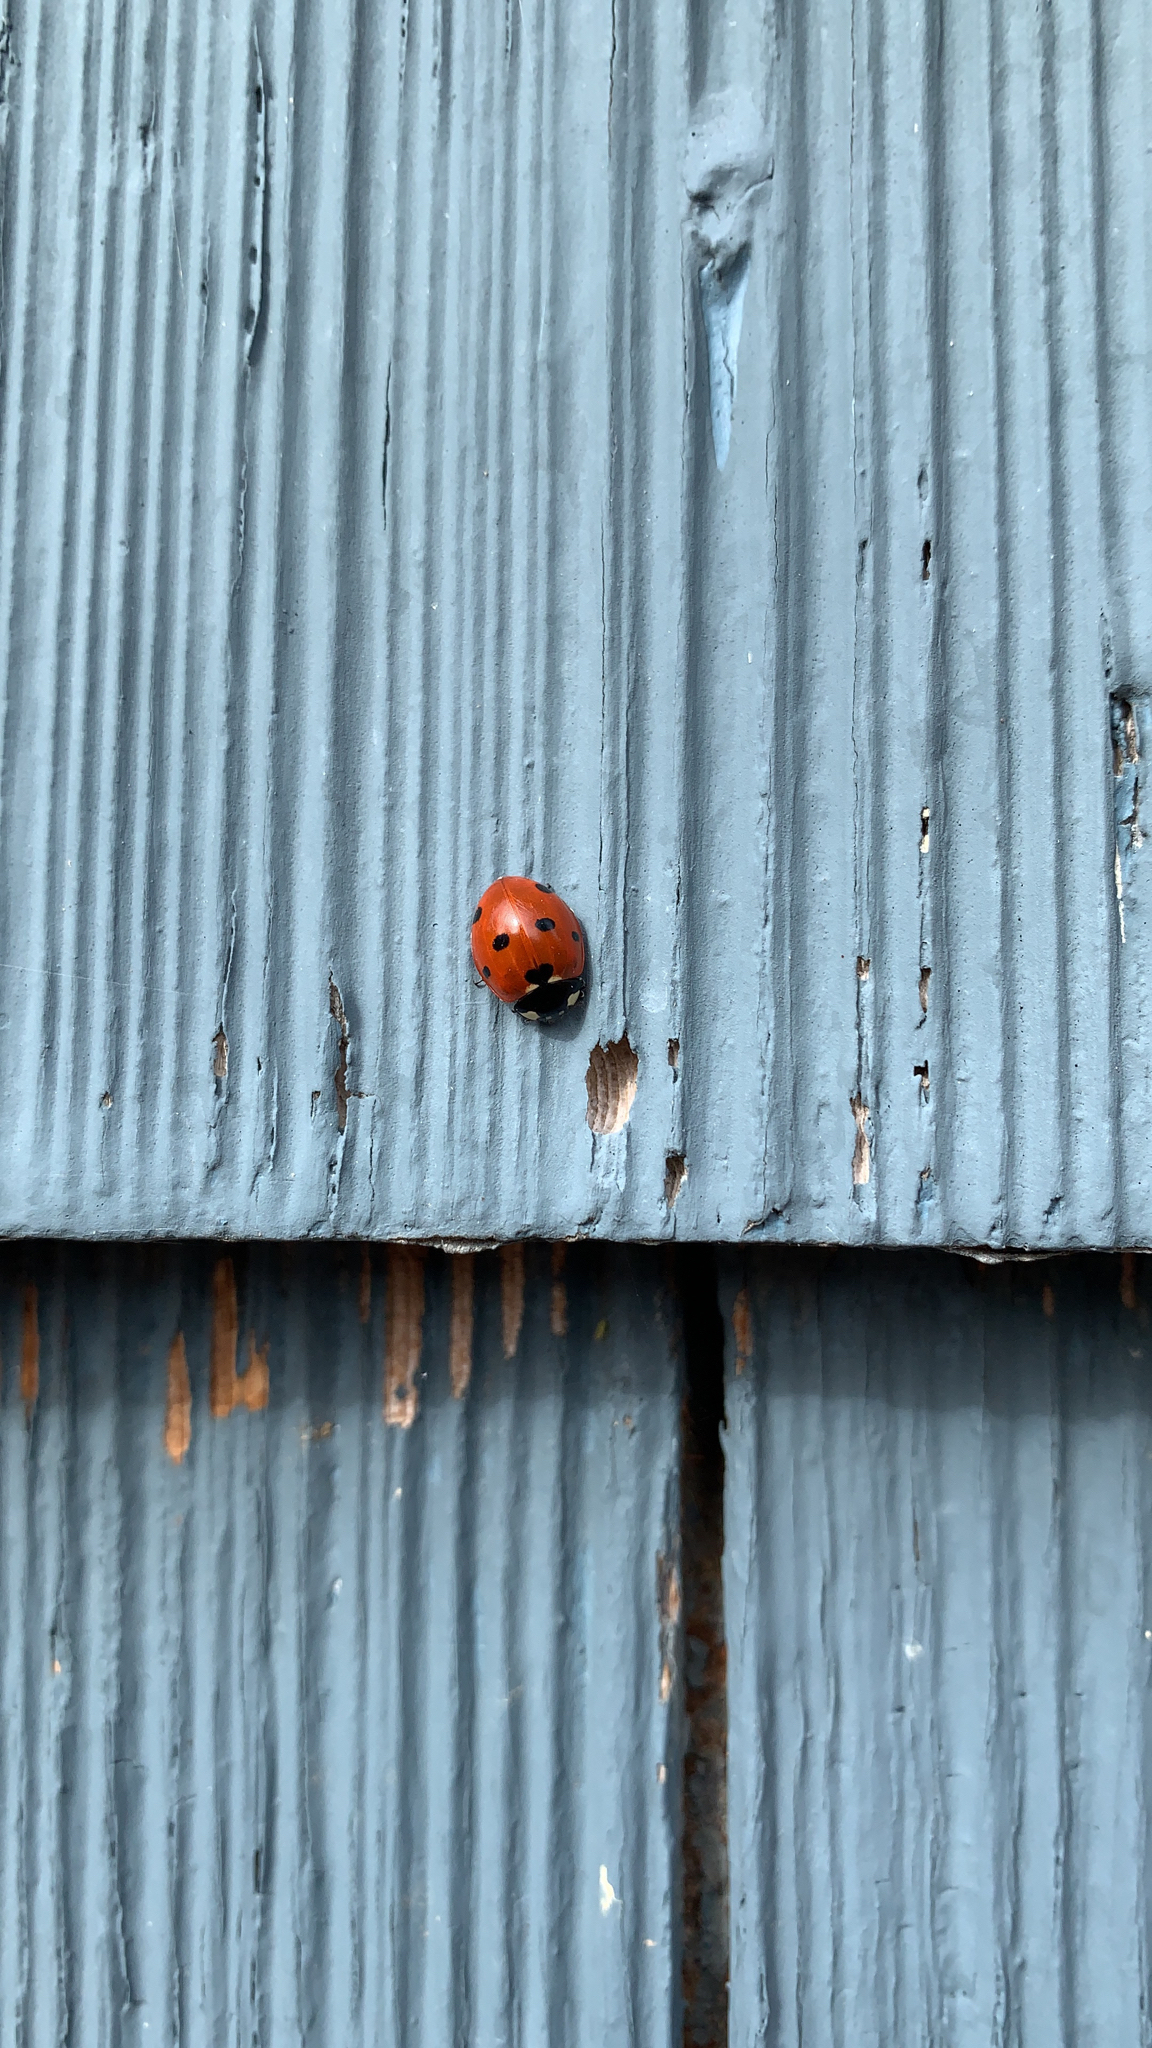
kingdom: Animalia
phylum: Arthropoda
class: Insecta
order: Coleoptera
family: Coccinellidae
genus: Coccinella
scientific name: Coccinella septempunctata
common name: Sevenspotted lady beetle
